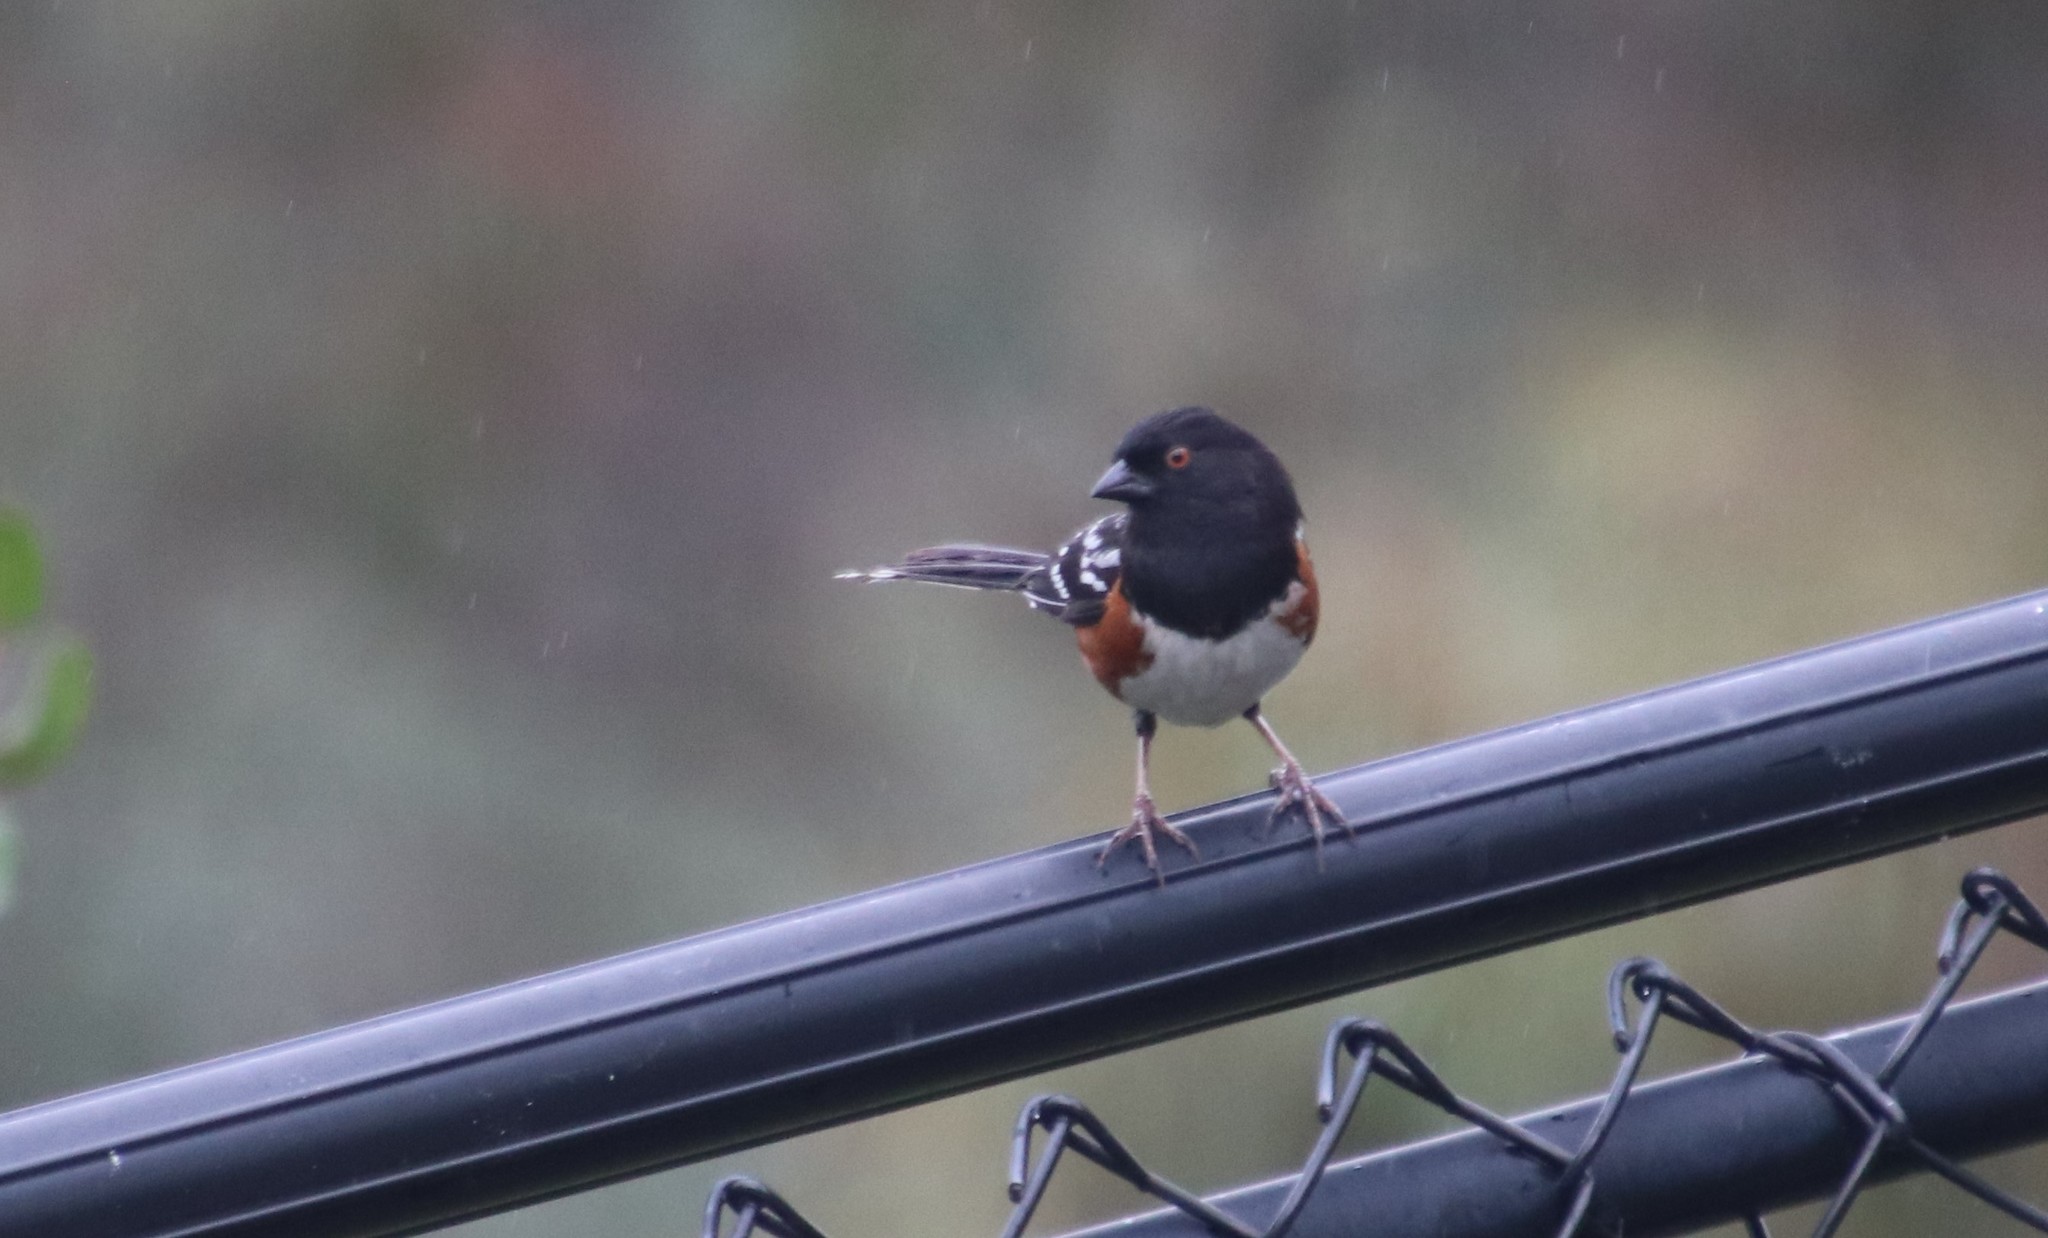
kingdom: Animalia
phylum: Chordata
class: Aves
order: Passeriformes
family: Passerellidae
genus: Pipilo
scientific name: Pipilo maculatus
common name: Spotted towhee
